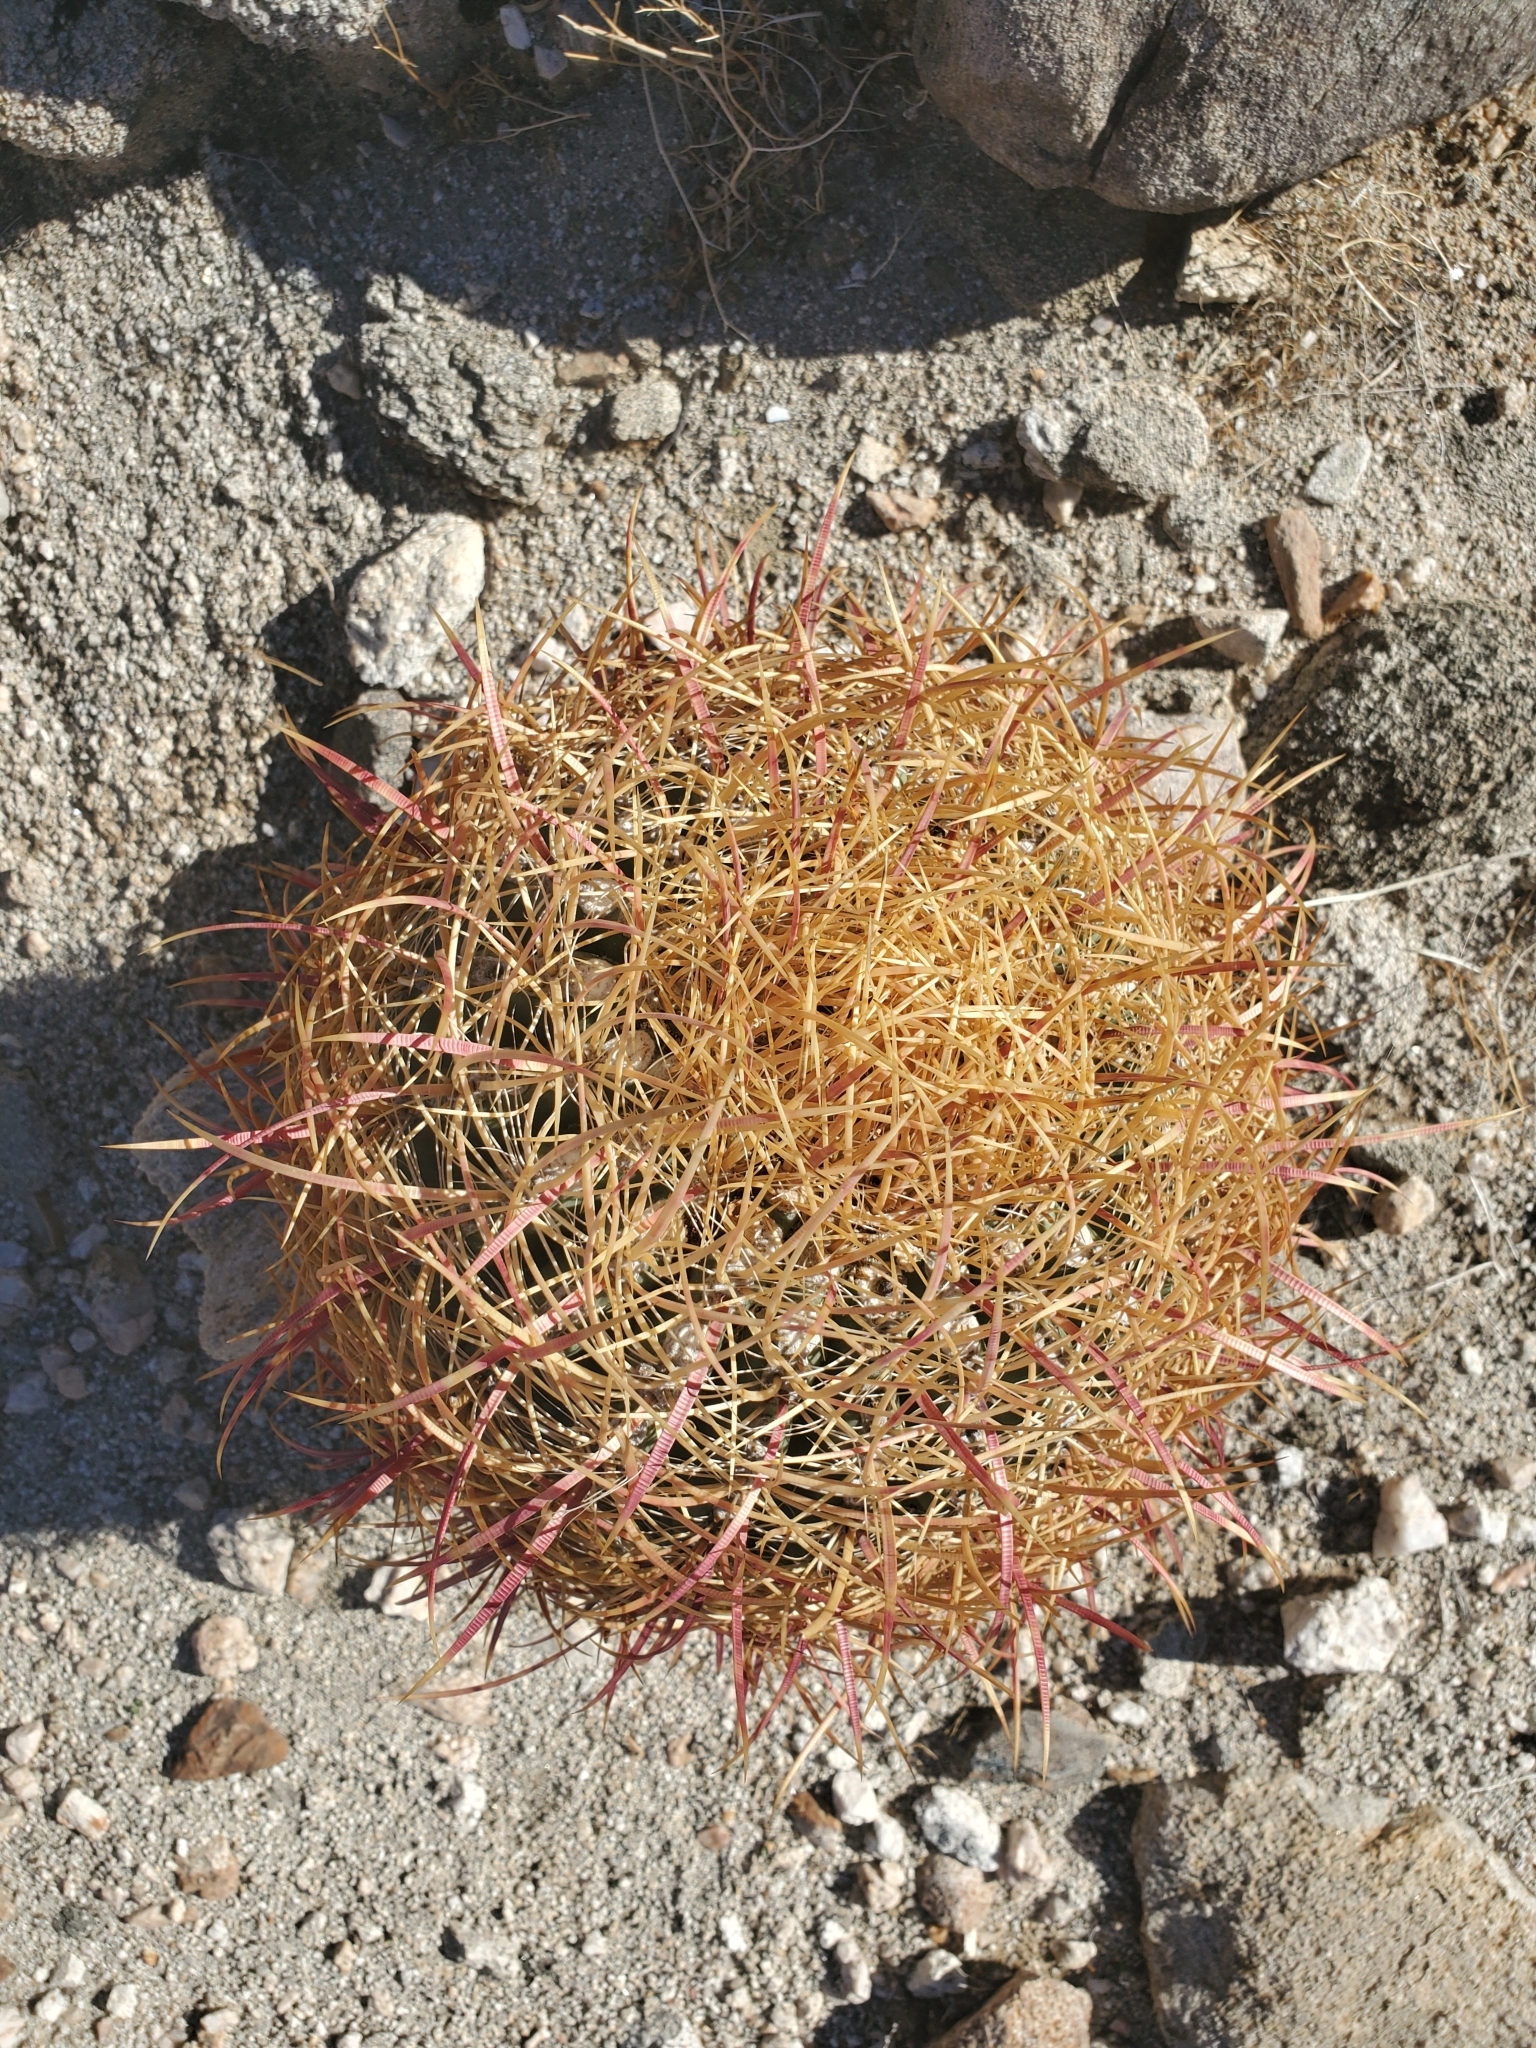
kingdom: Plantae
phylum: Tracheophyta
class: Magnoliopsida
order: Caryophyllales
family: Cactaceae
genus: Ferocactus
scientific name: Ferocactus cylindraceus
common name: California barrel cactus
